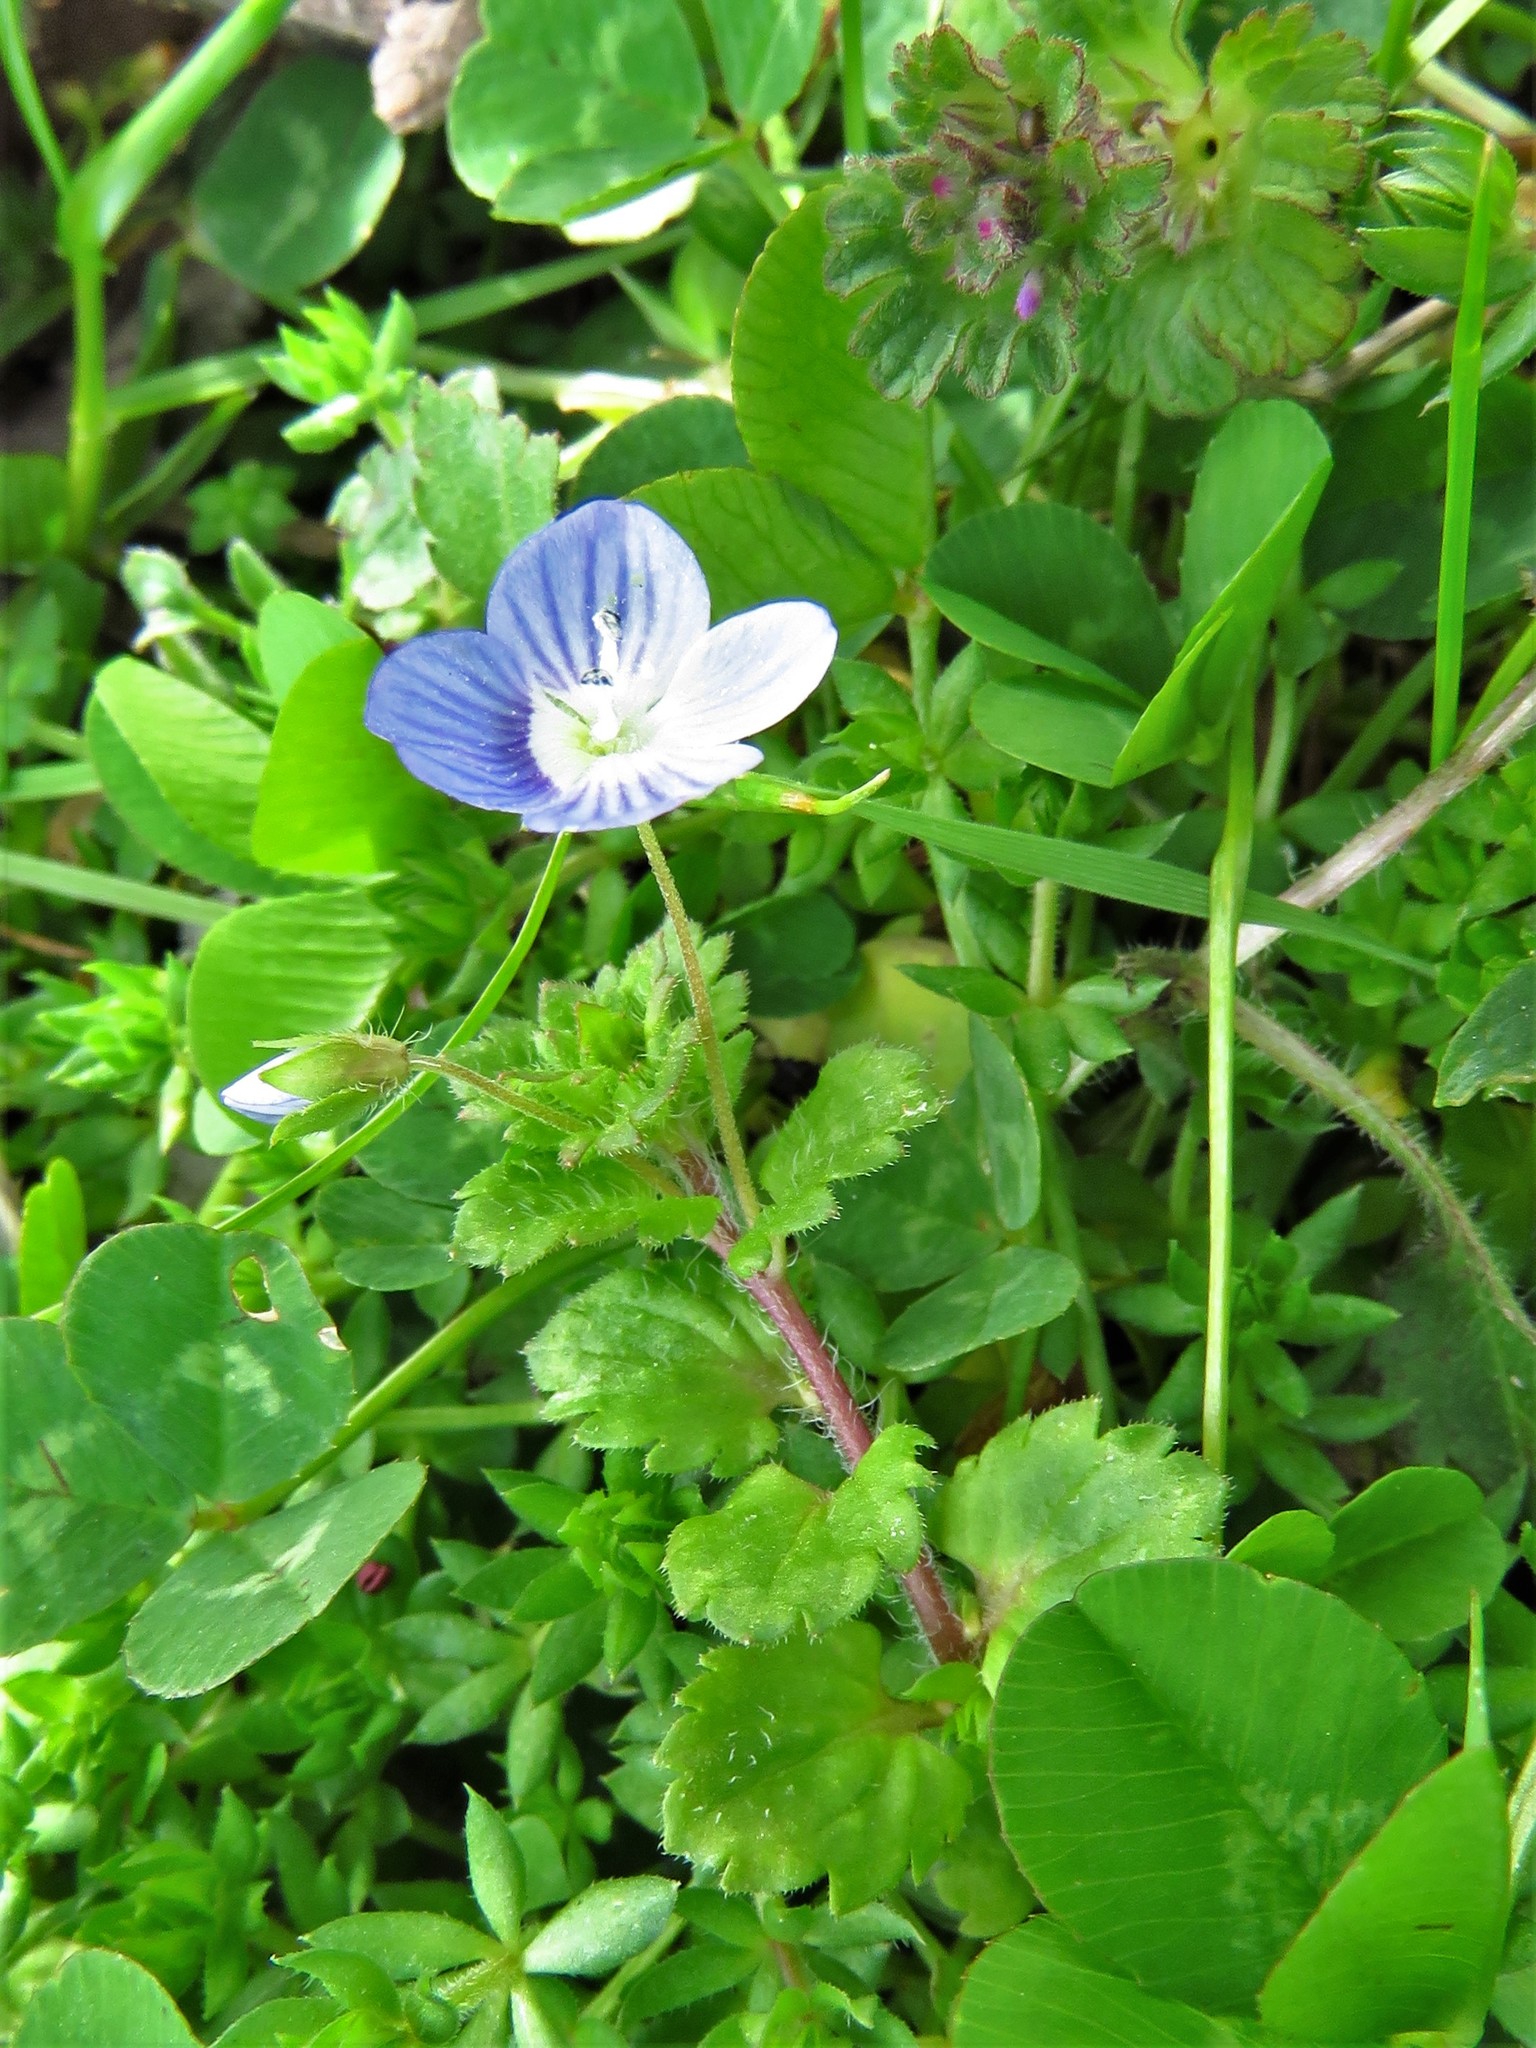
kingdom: Plantae
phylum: Tracheophyta
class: Magnoliopsida
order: Lamiales
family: Plantaginaceae
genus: Veronica
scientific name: Veronica persica
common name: Common field-speedwell
